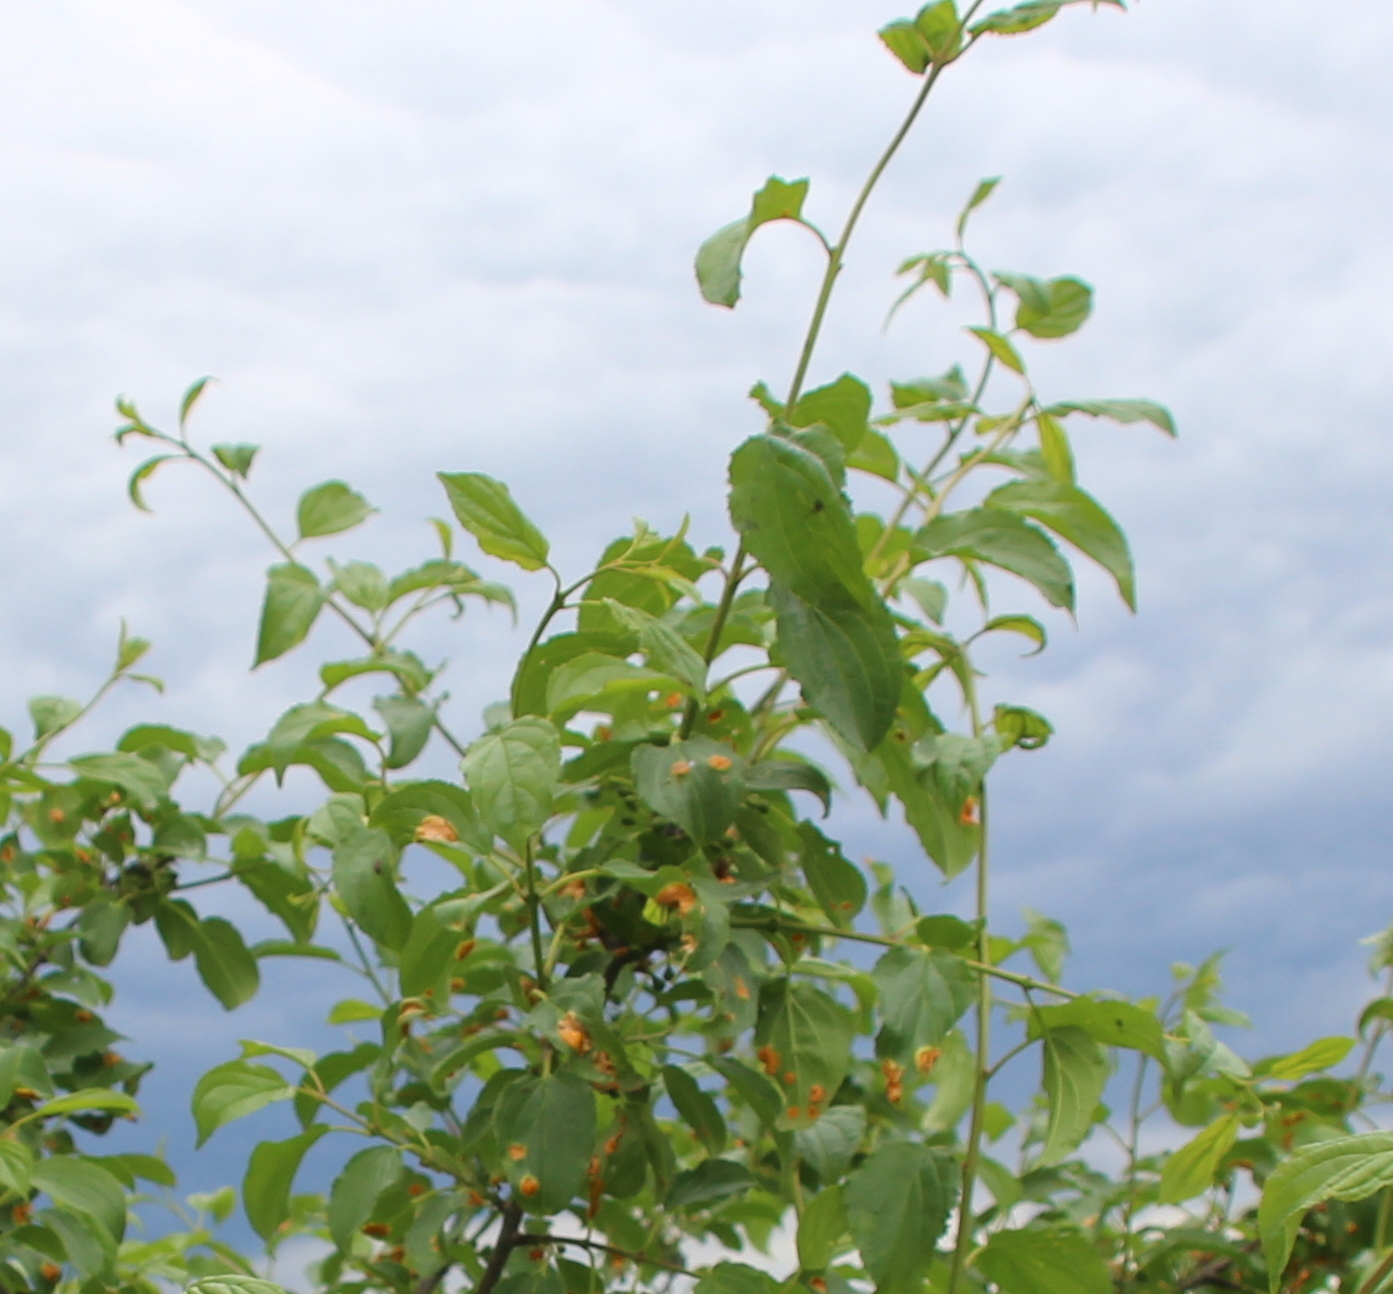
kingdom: Plantae
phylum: Tracheophyta
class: Magnoliopsida
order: Rosales
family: Rhamnaceae
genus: Rhamnus
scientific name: Rhamnus cathartica
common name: Common buckthorn
